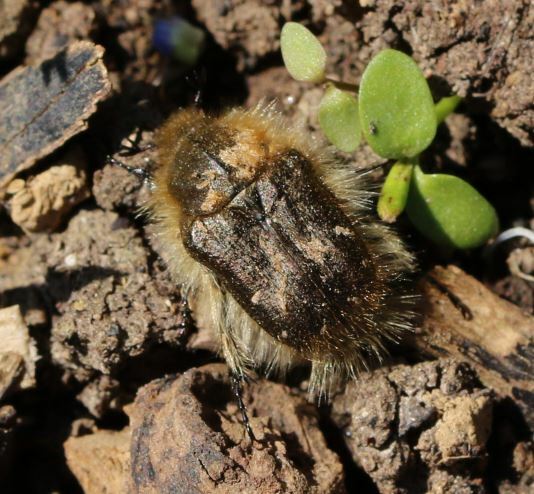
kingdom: Animalia
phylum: Arthropoda
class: Insecta
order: Coleoptera
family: Scarabaeidae
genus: Tropinota
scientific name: Tropinota hirta
